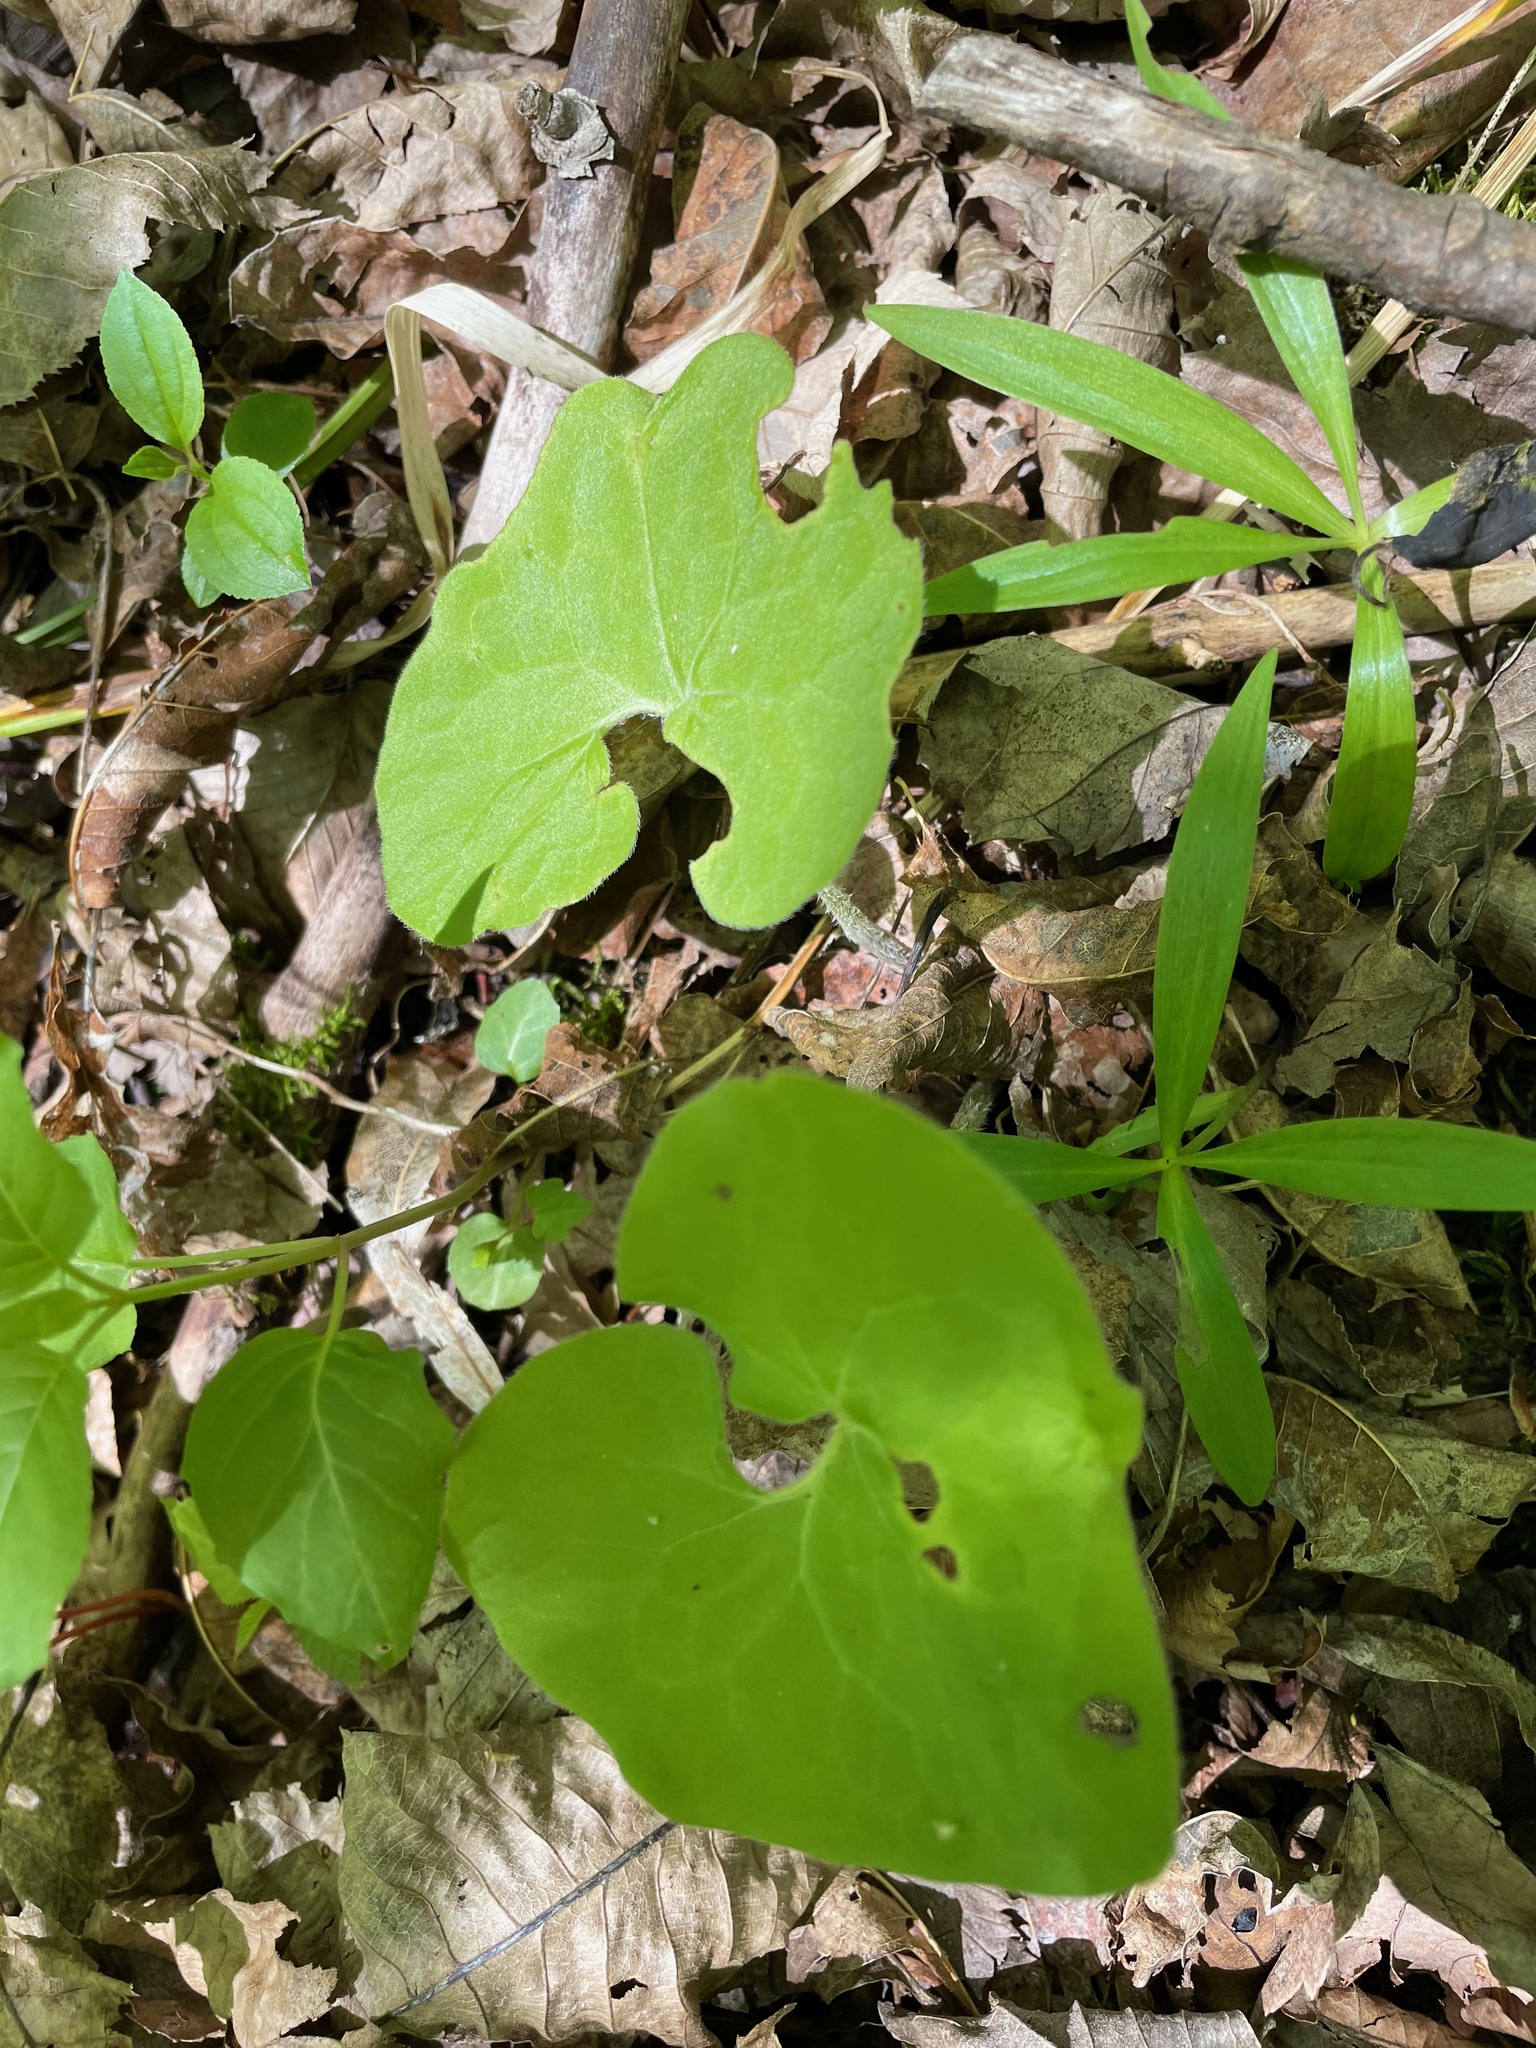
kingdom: Plantae
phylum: Tracheophyta
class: Magnoliopsida
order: Piperales
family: Aristolochiaceae
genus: Asarum
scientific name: Asarum canadense
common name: Wild ginger
